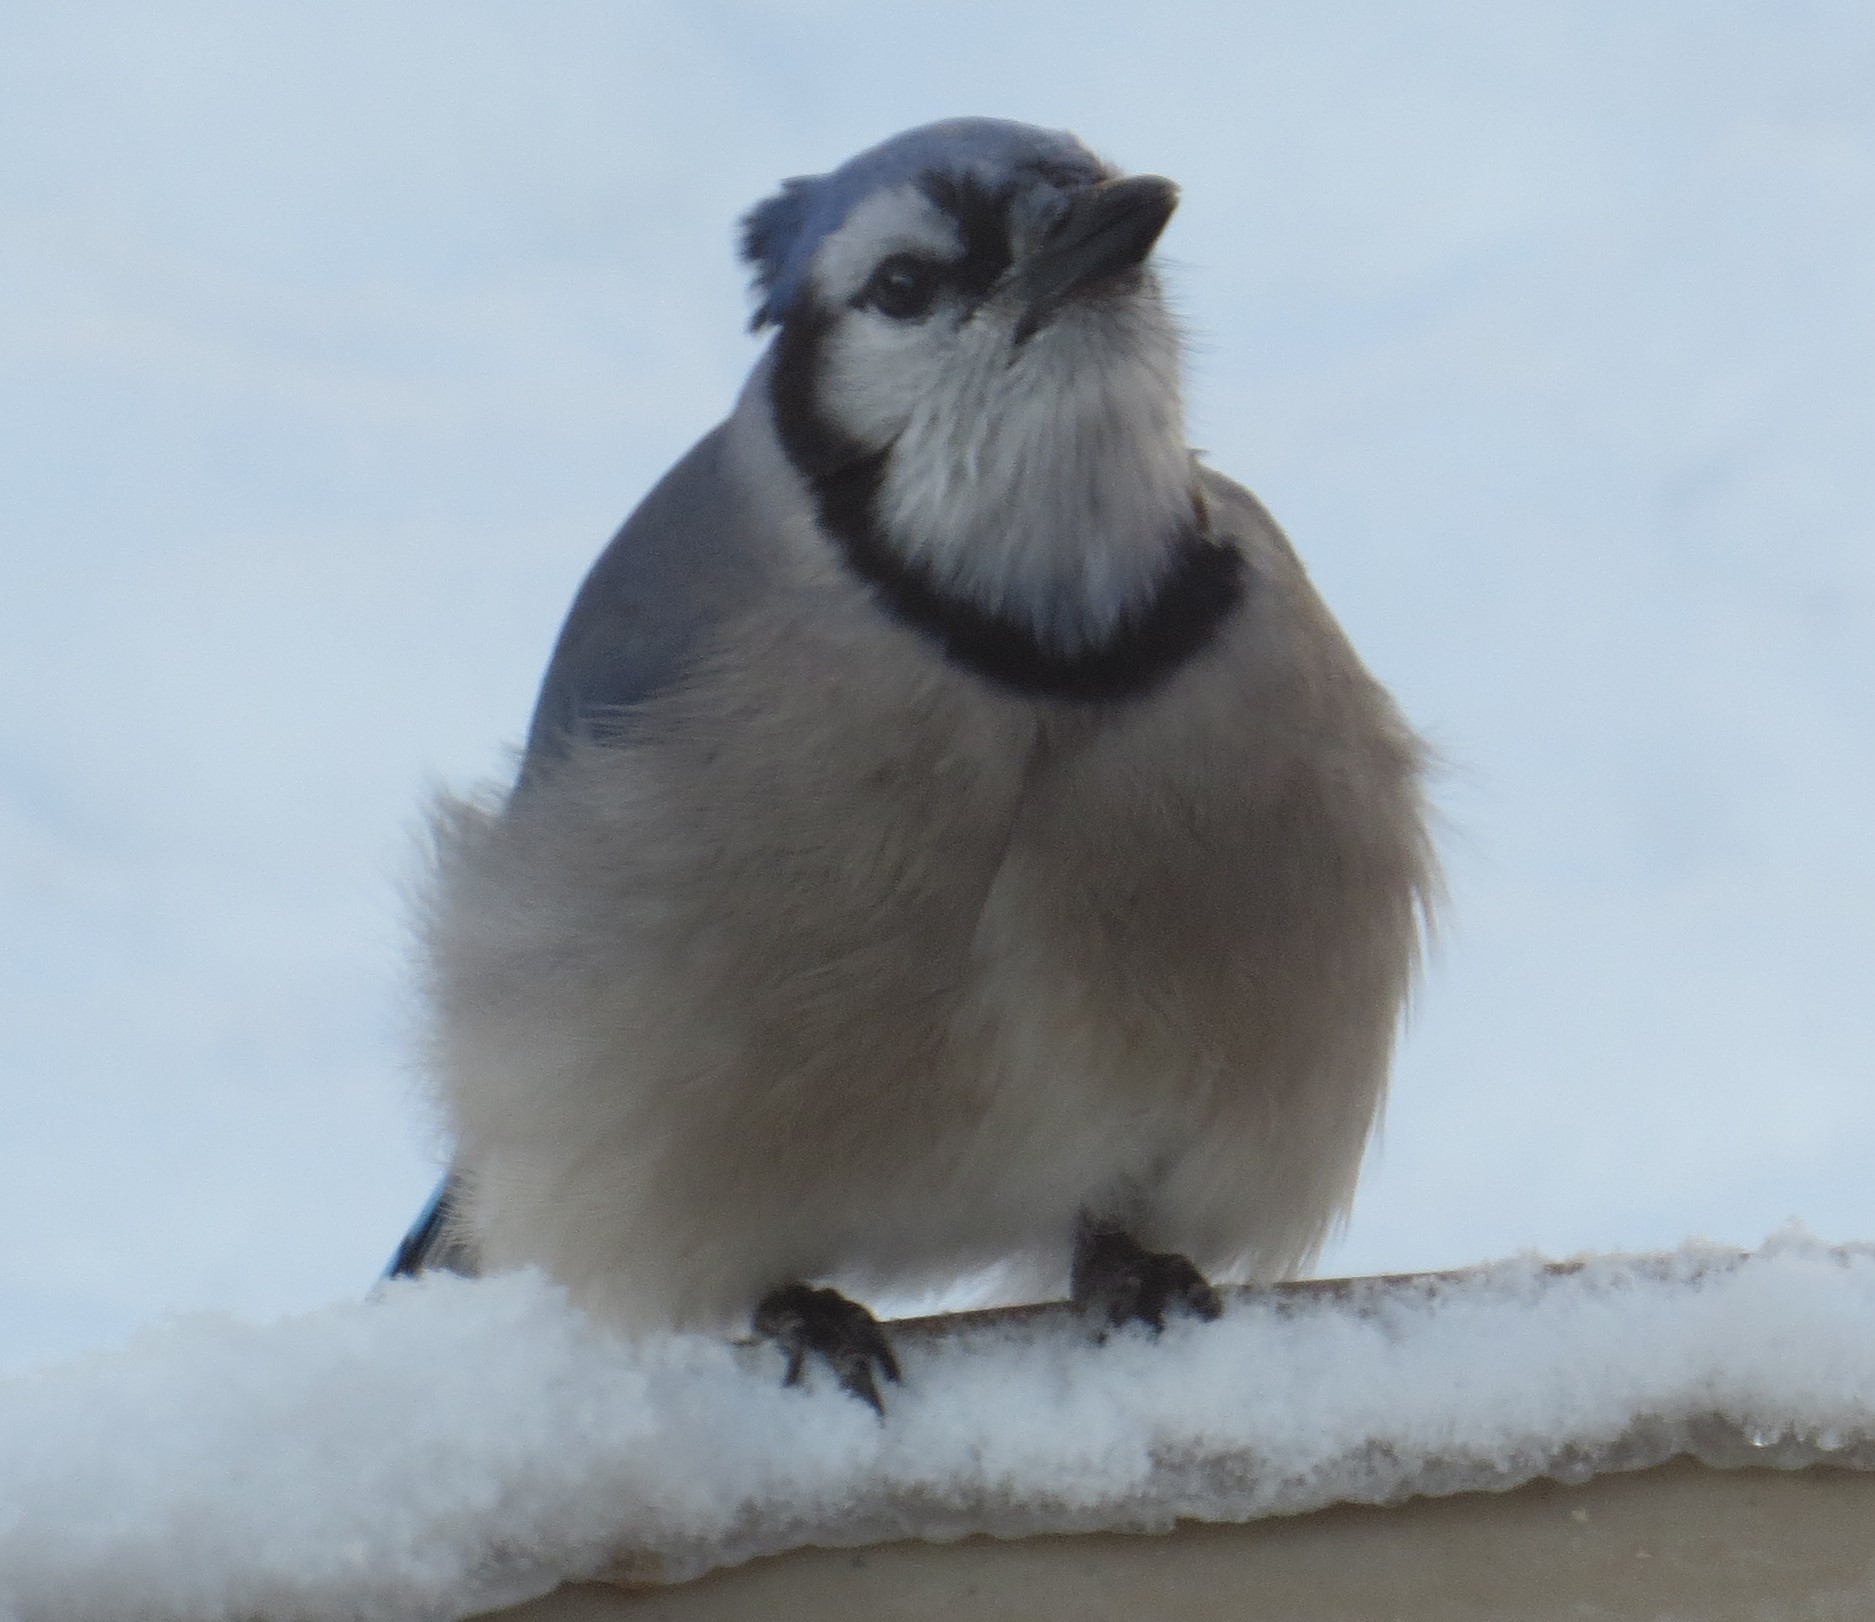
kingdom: Animalia
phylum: Chordata
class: Aves
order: Passeriformes
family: Corvidae
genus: Cyanocitta
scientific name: Cyanocitta cristata
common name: Blue jay
